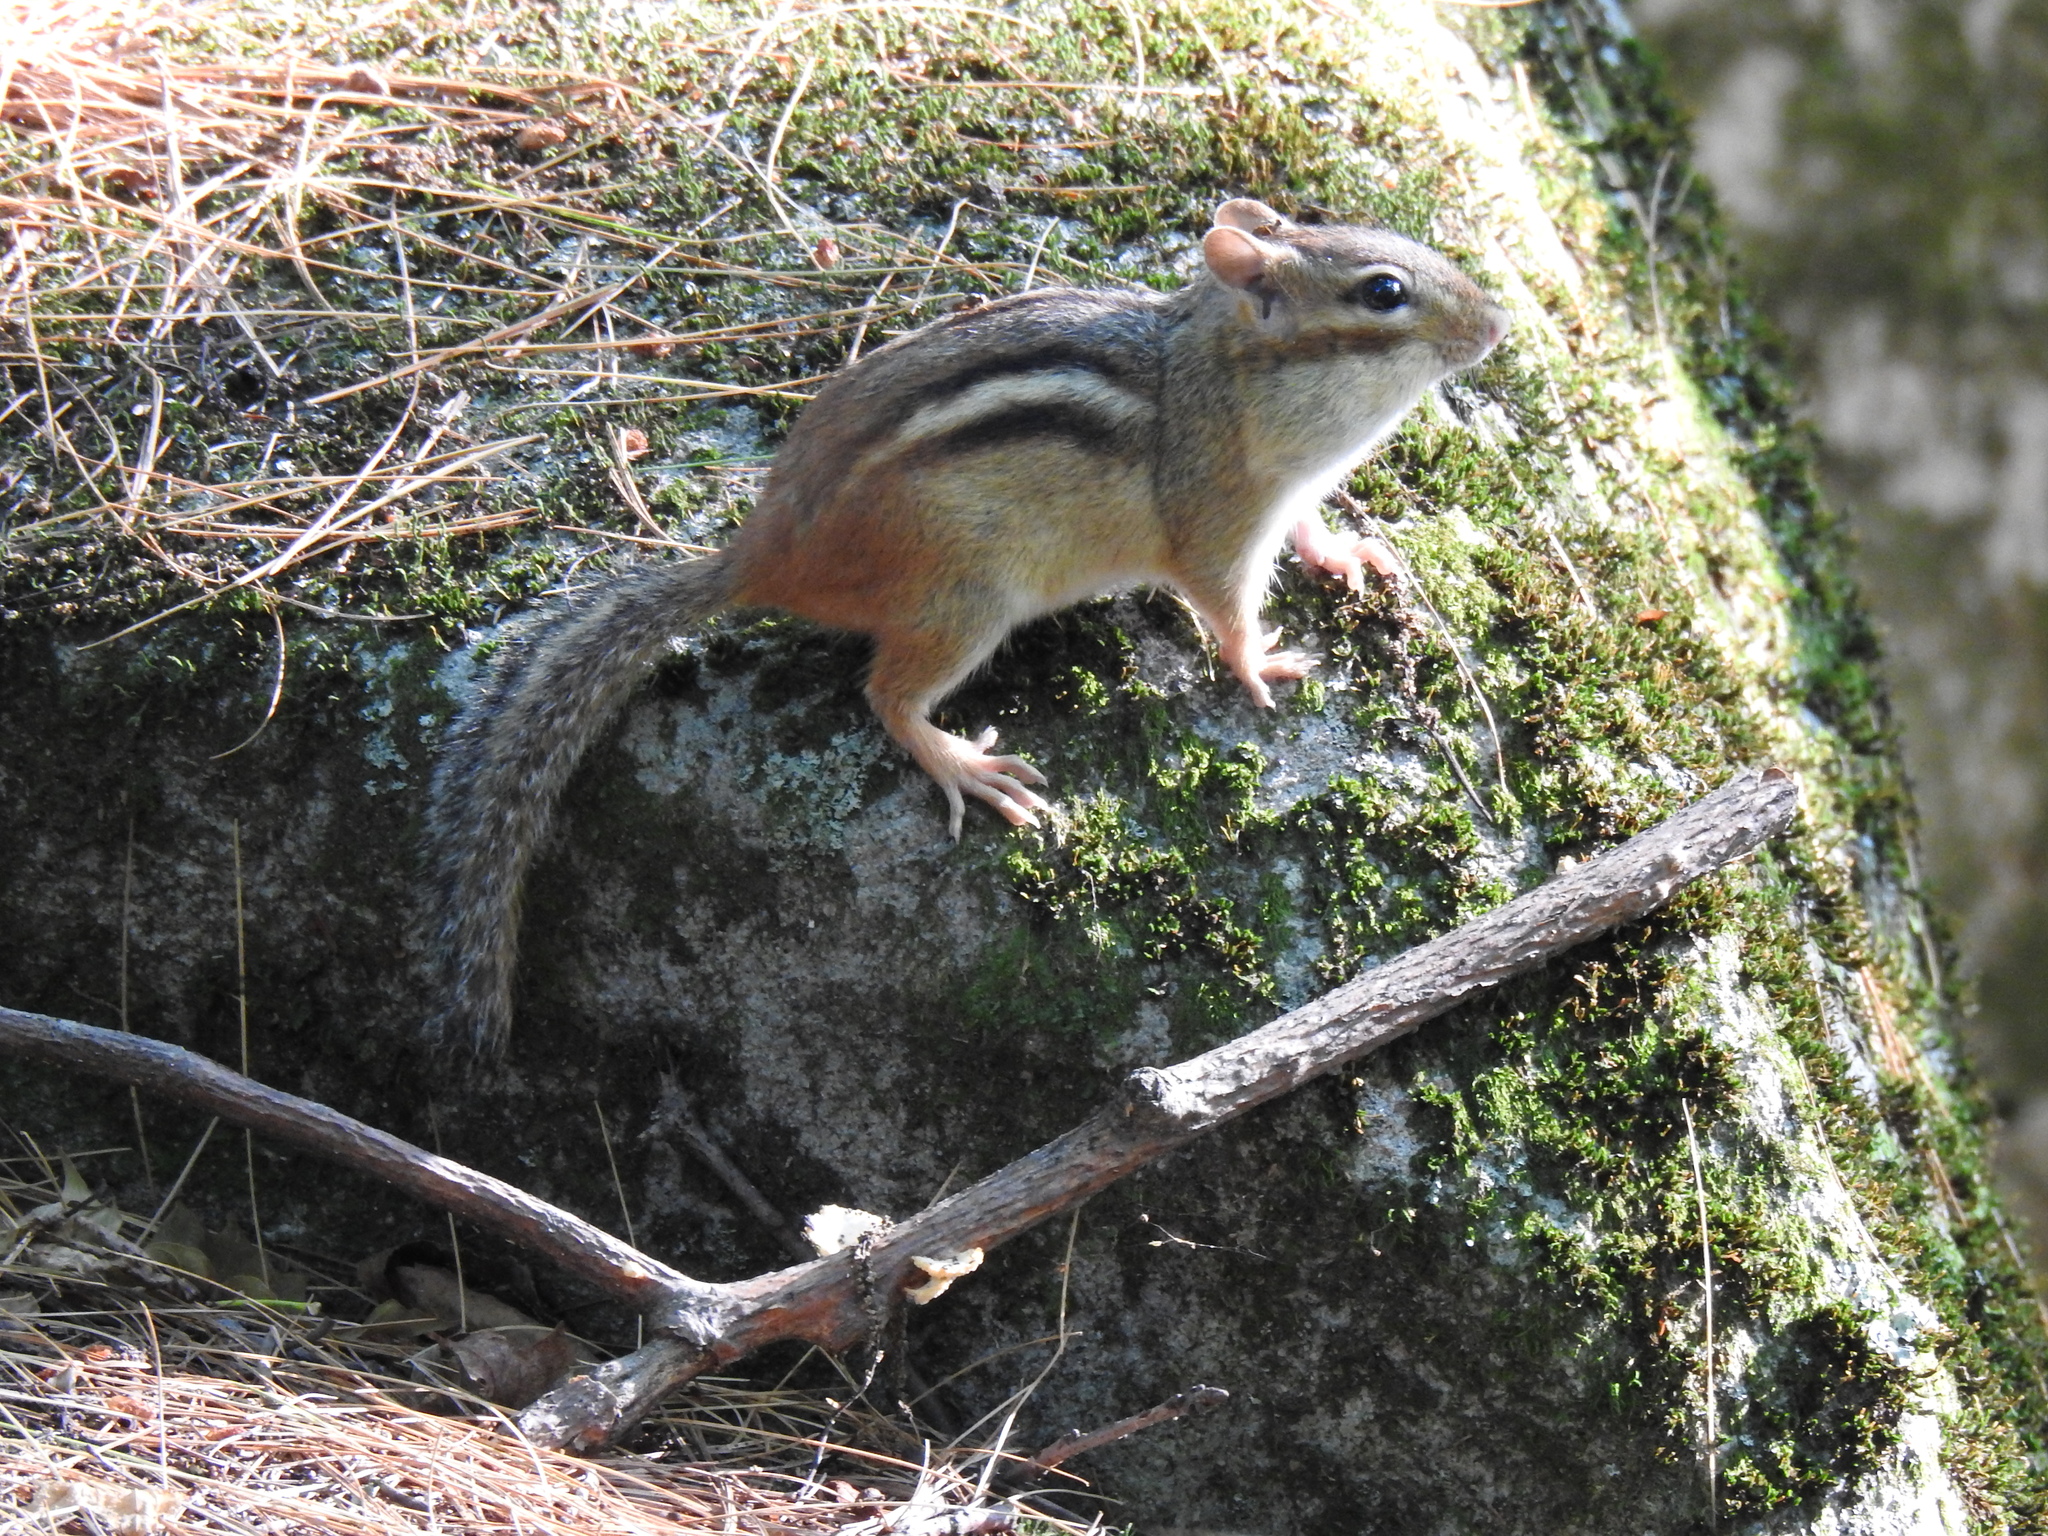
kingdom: Animalia
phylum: Chordata
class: Mammalia
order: Rodentia
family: Sciuridae
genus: Tamias
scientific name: Tamias striatus
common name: Eastern chipmunk
